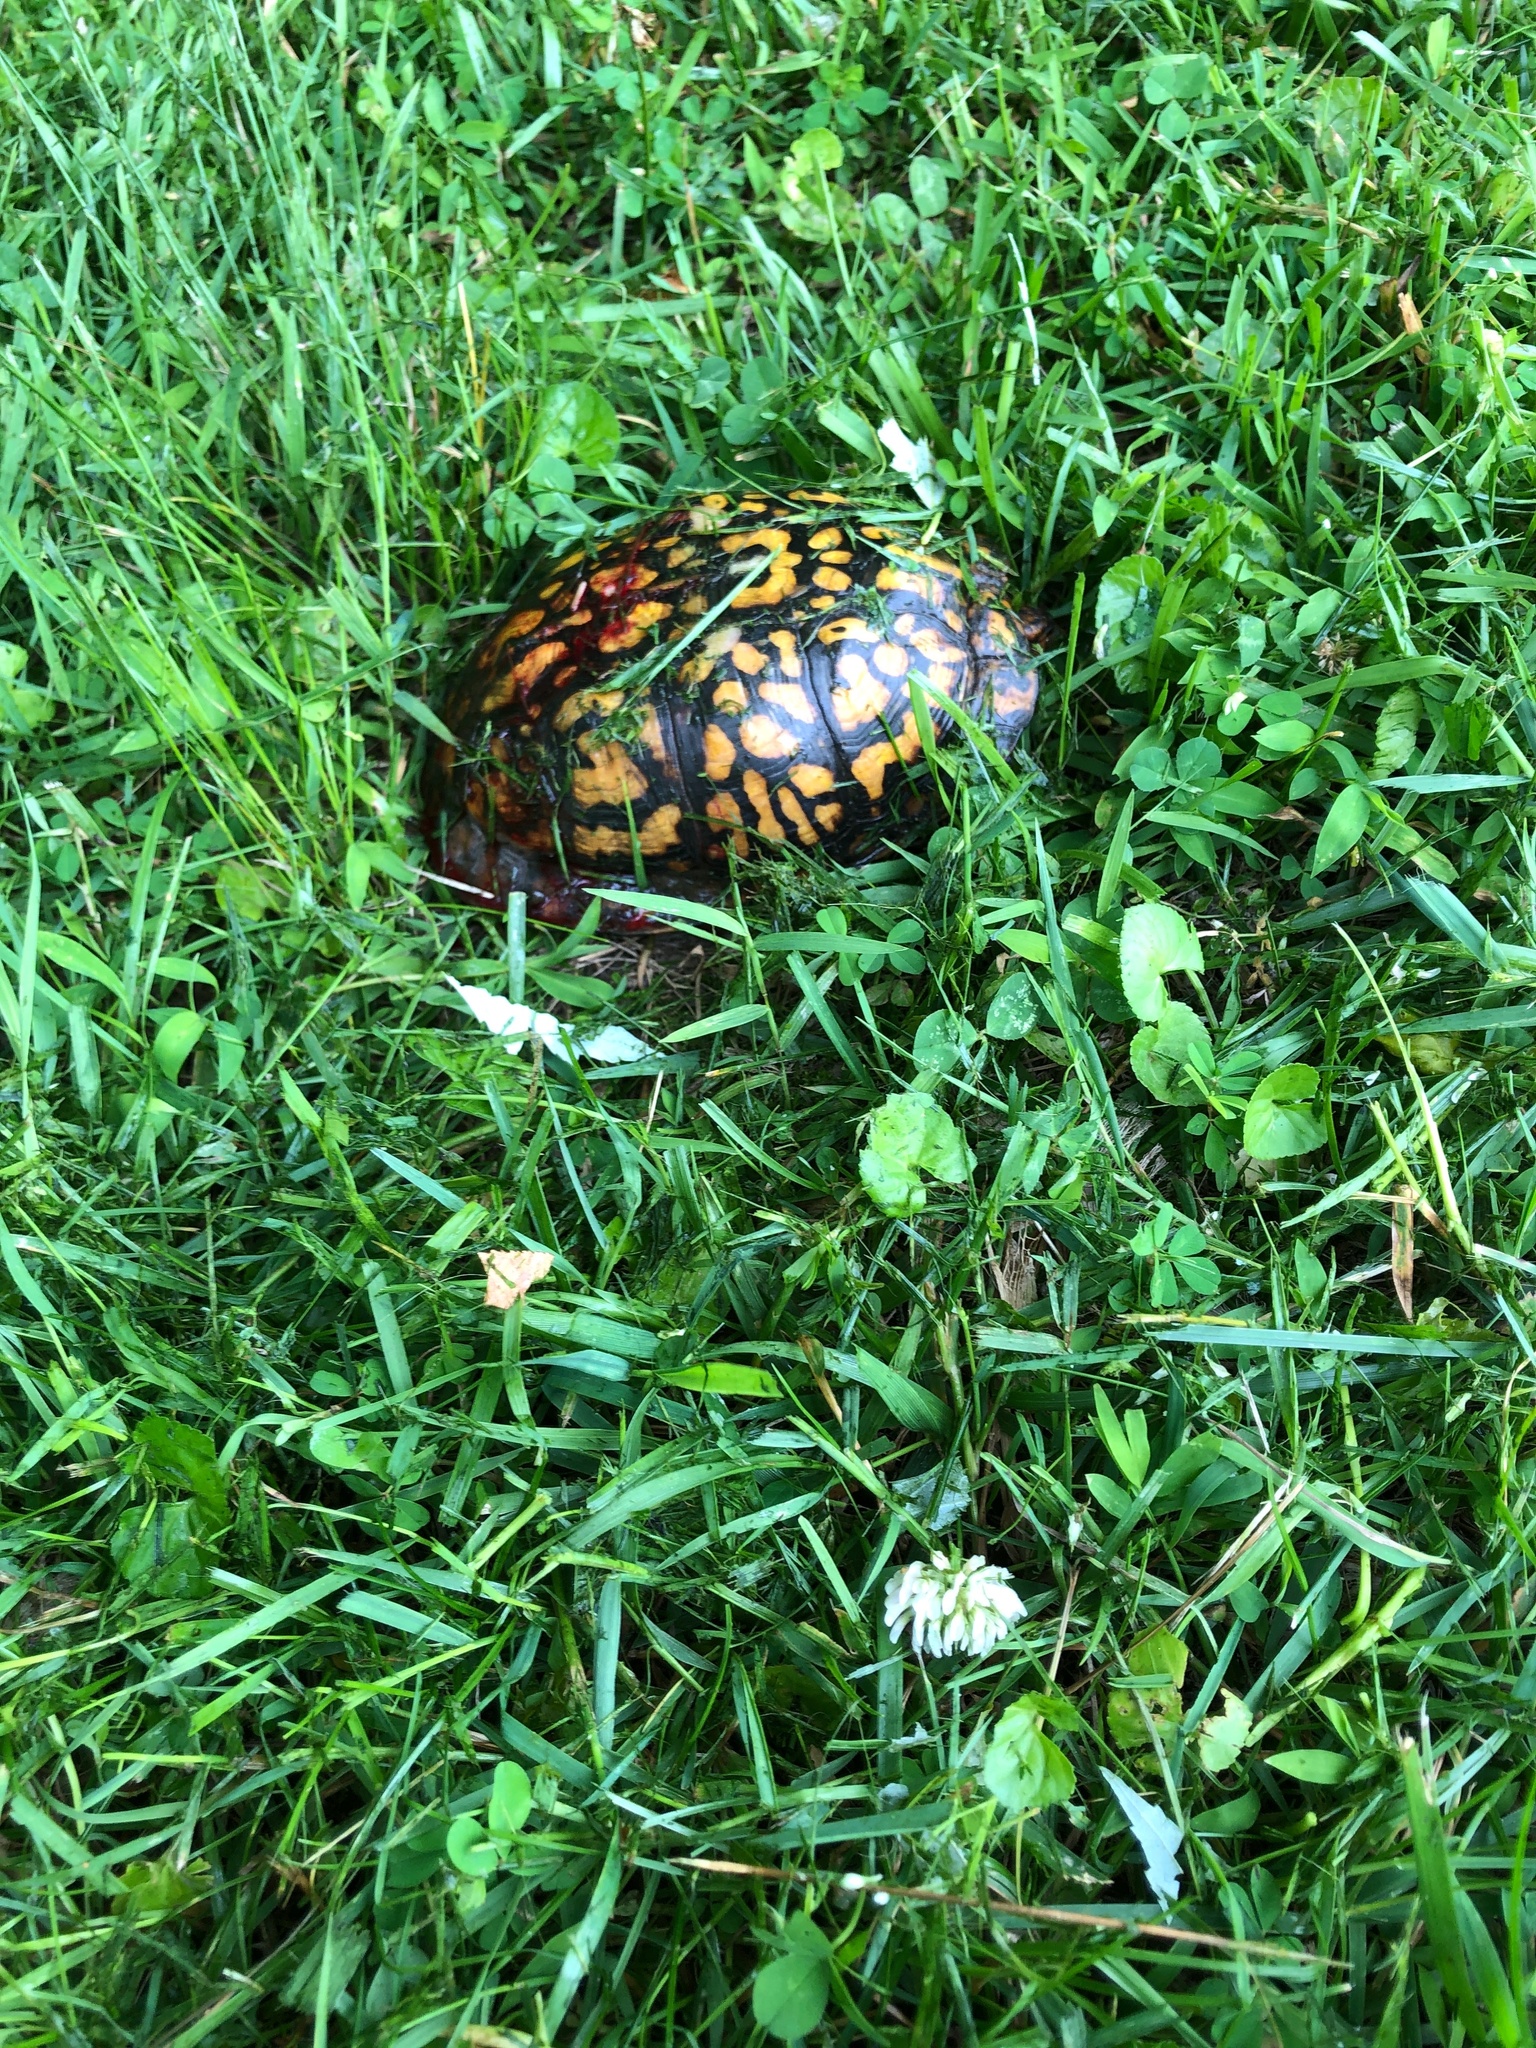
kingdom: Animalia
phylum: Chordata
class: Testudines
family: Emydidae
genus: Terrapene
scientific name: Terrapene carolina
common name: Common box turtle
